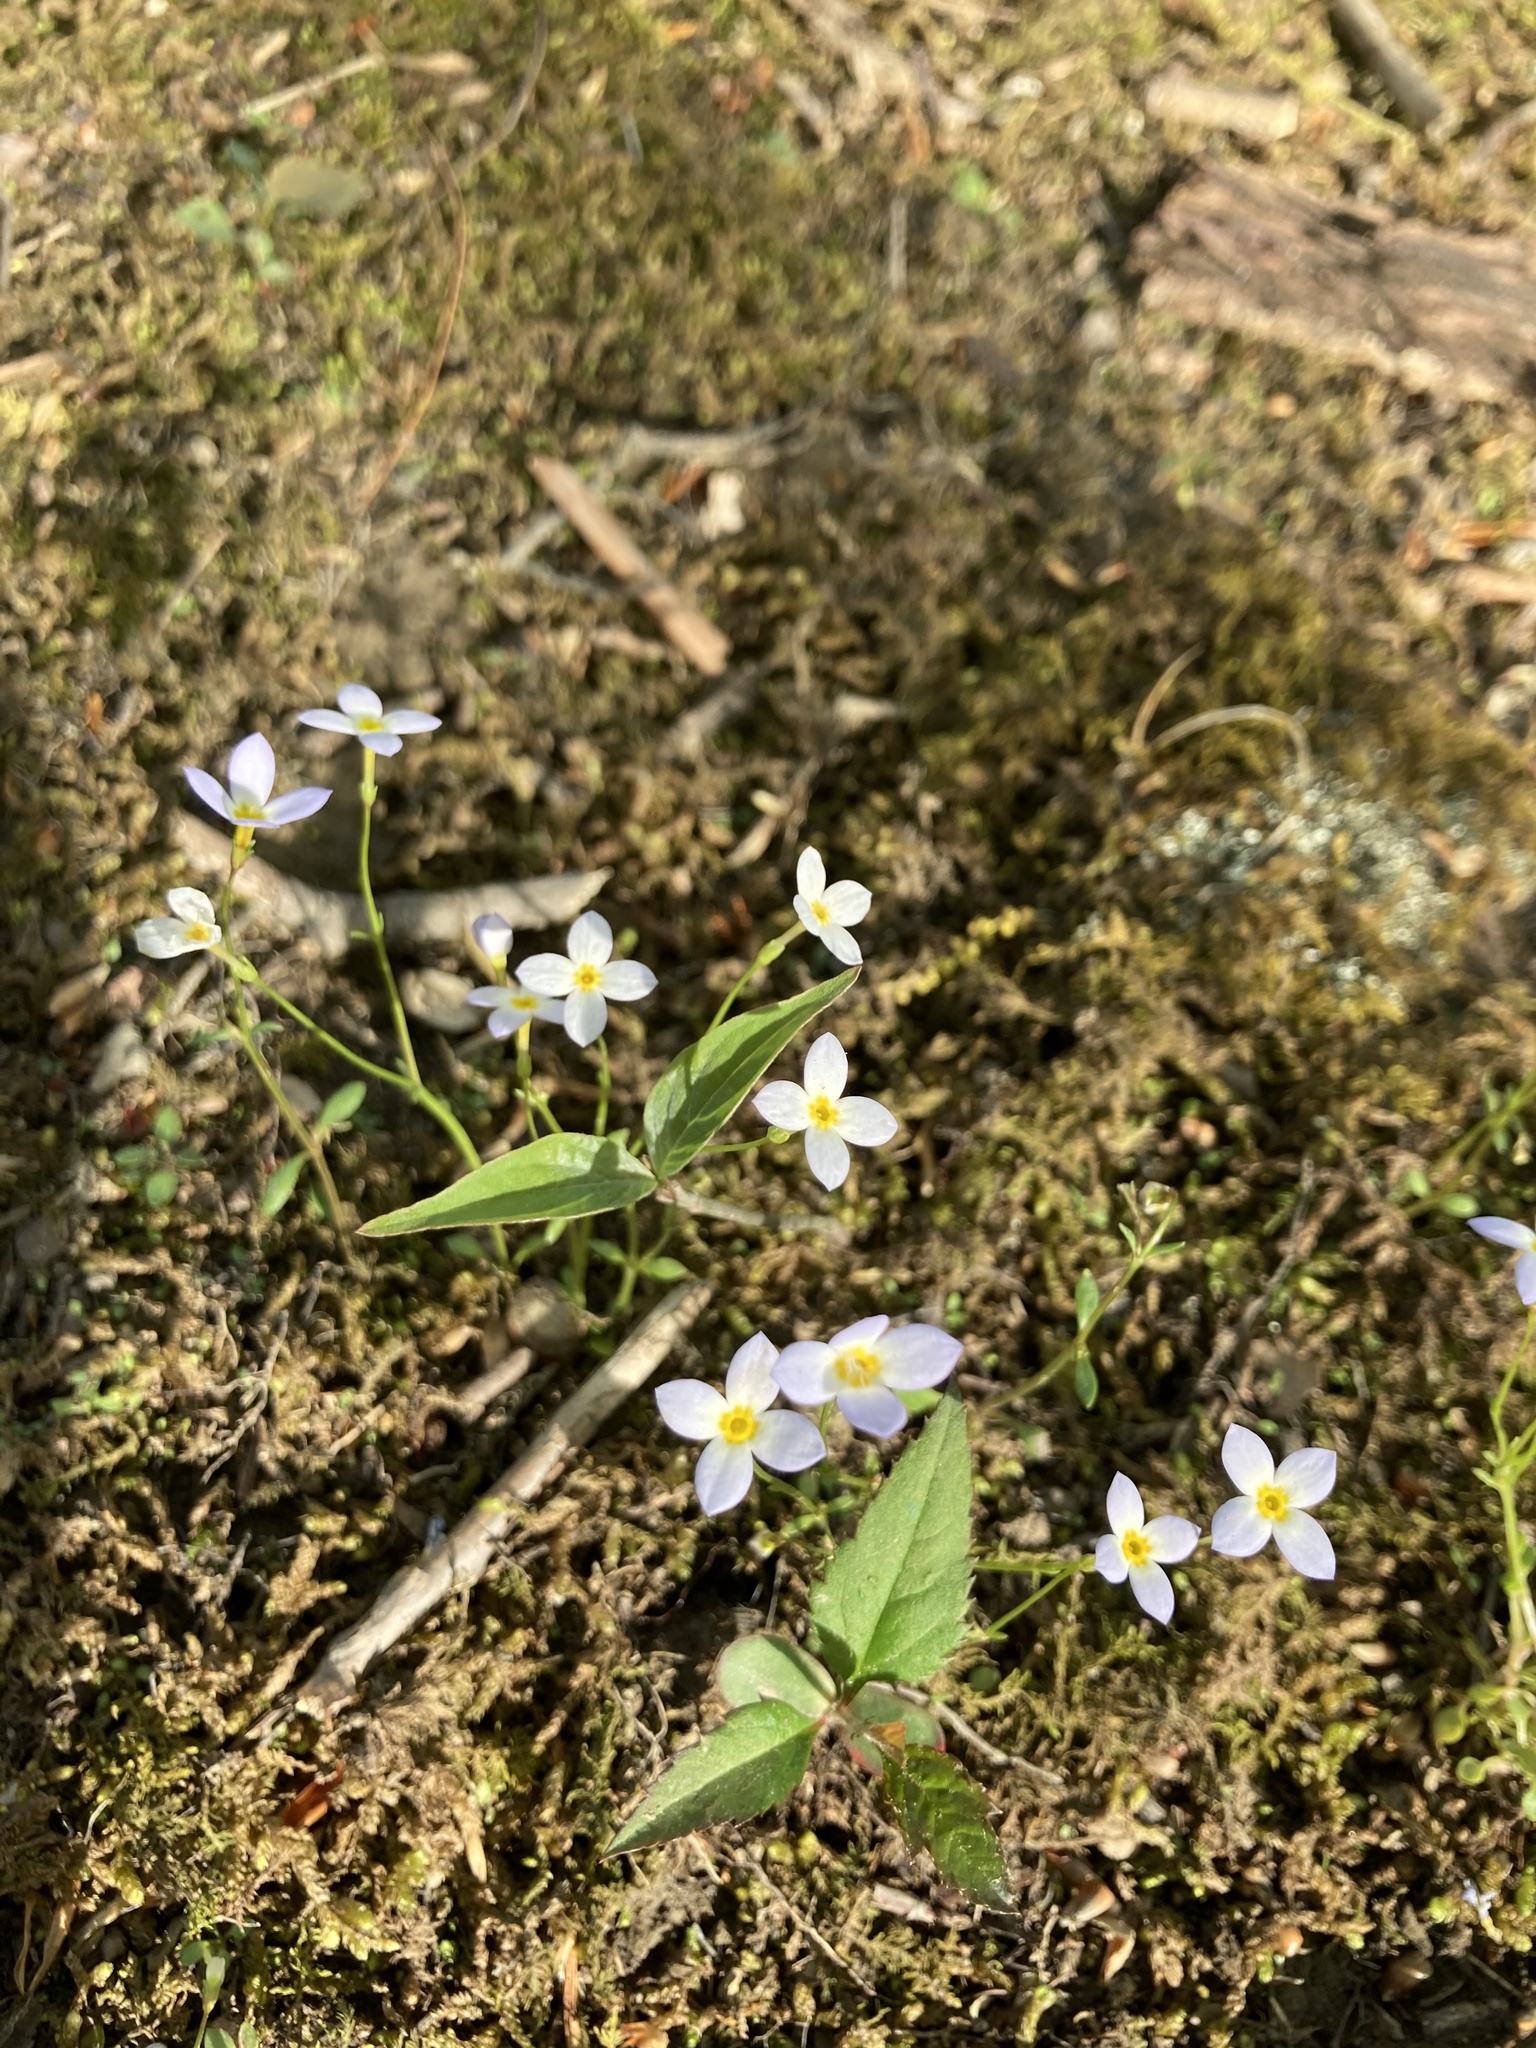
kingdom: Plantae
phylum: Tracheophyta
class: Magnoliopsida
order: Gentianales
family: Rubiaceae
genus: Houstonia
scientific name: Houstonia caerulea
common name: Bluets
